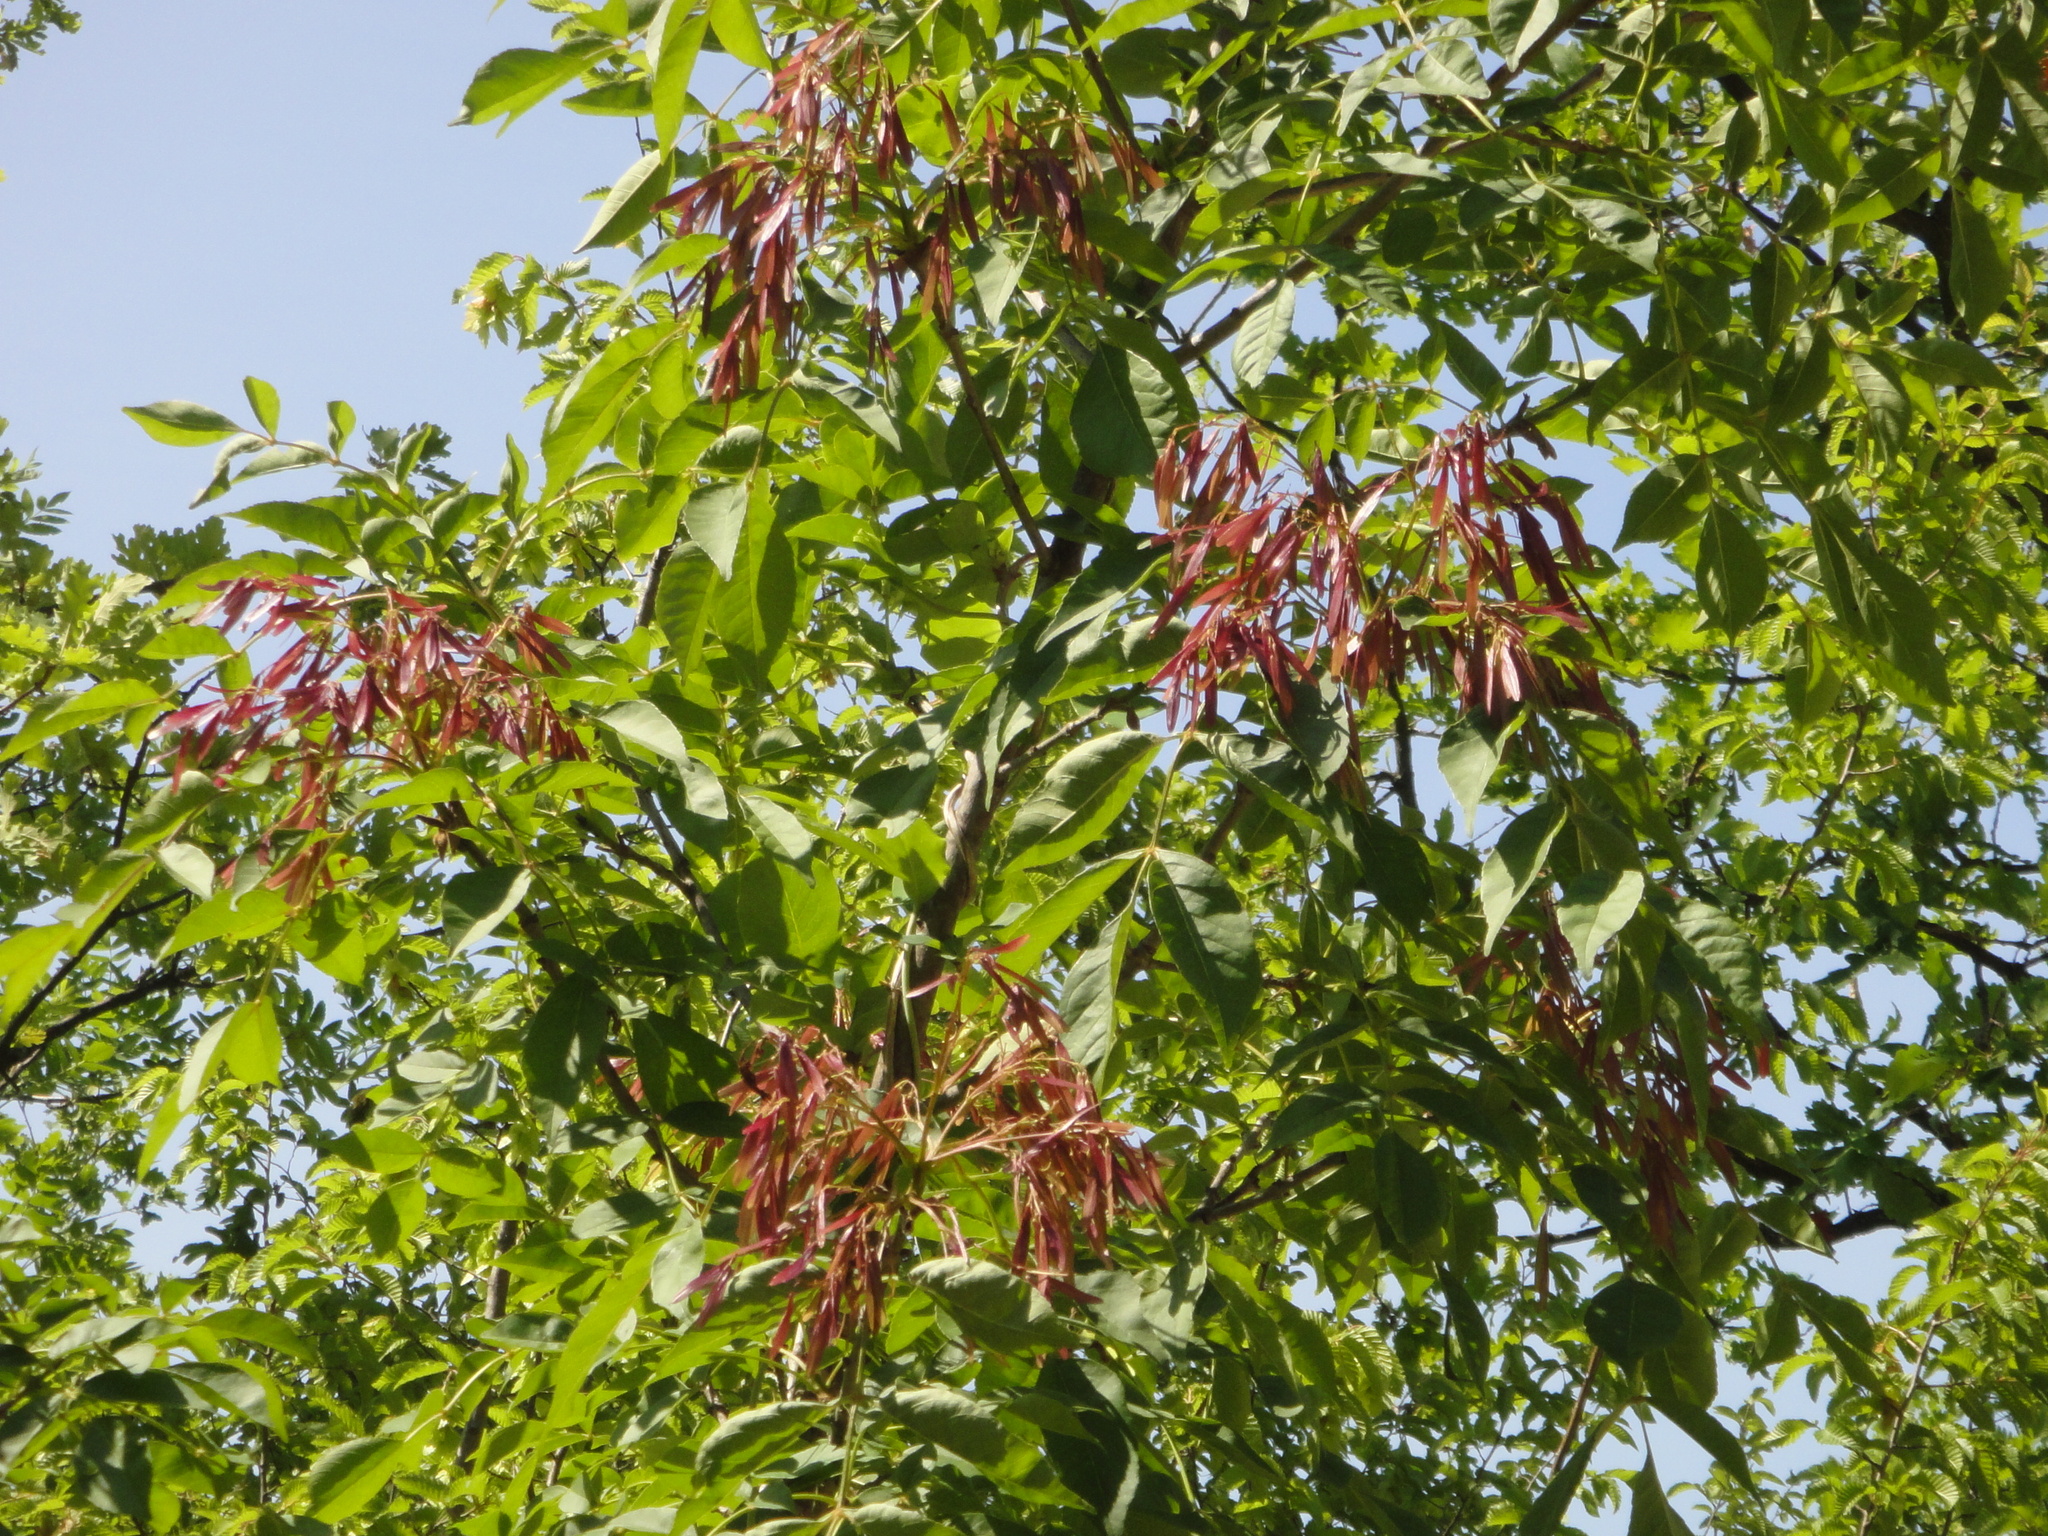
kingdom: Plantae
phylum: Tracheophyta
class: Magnoliopsida
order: Lamiales
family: Oleaceae
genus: Fraxinus
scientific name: Fraxinus ornus
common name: Manna ash
